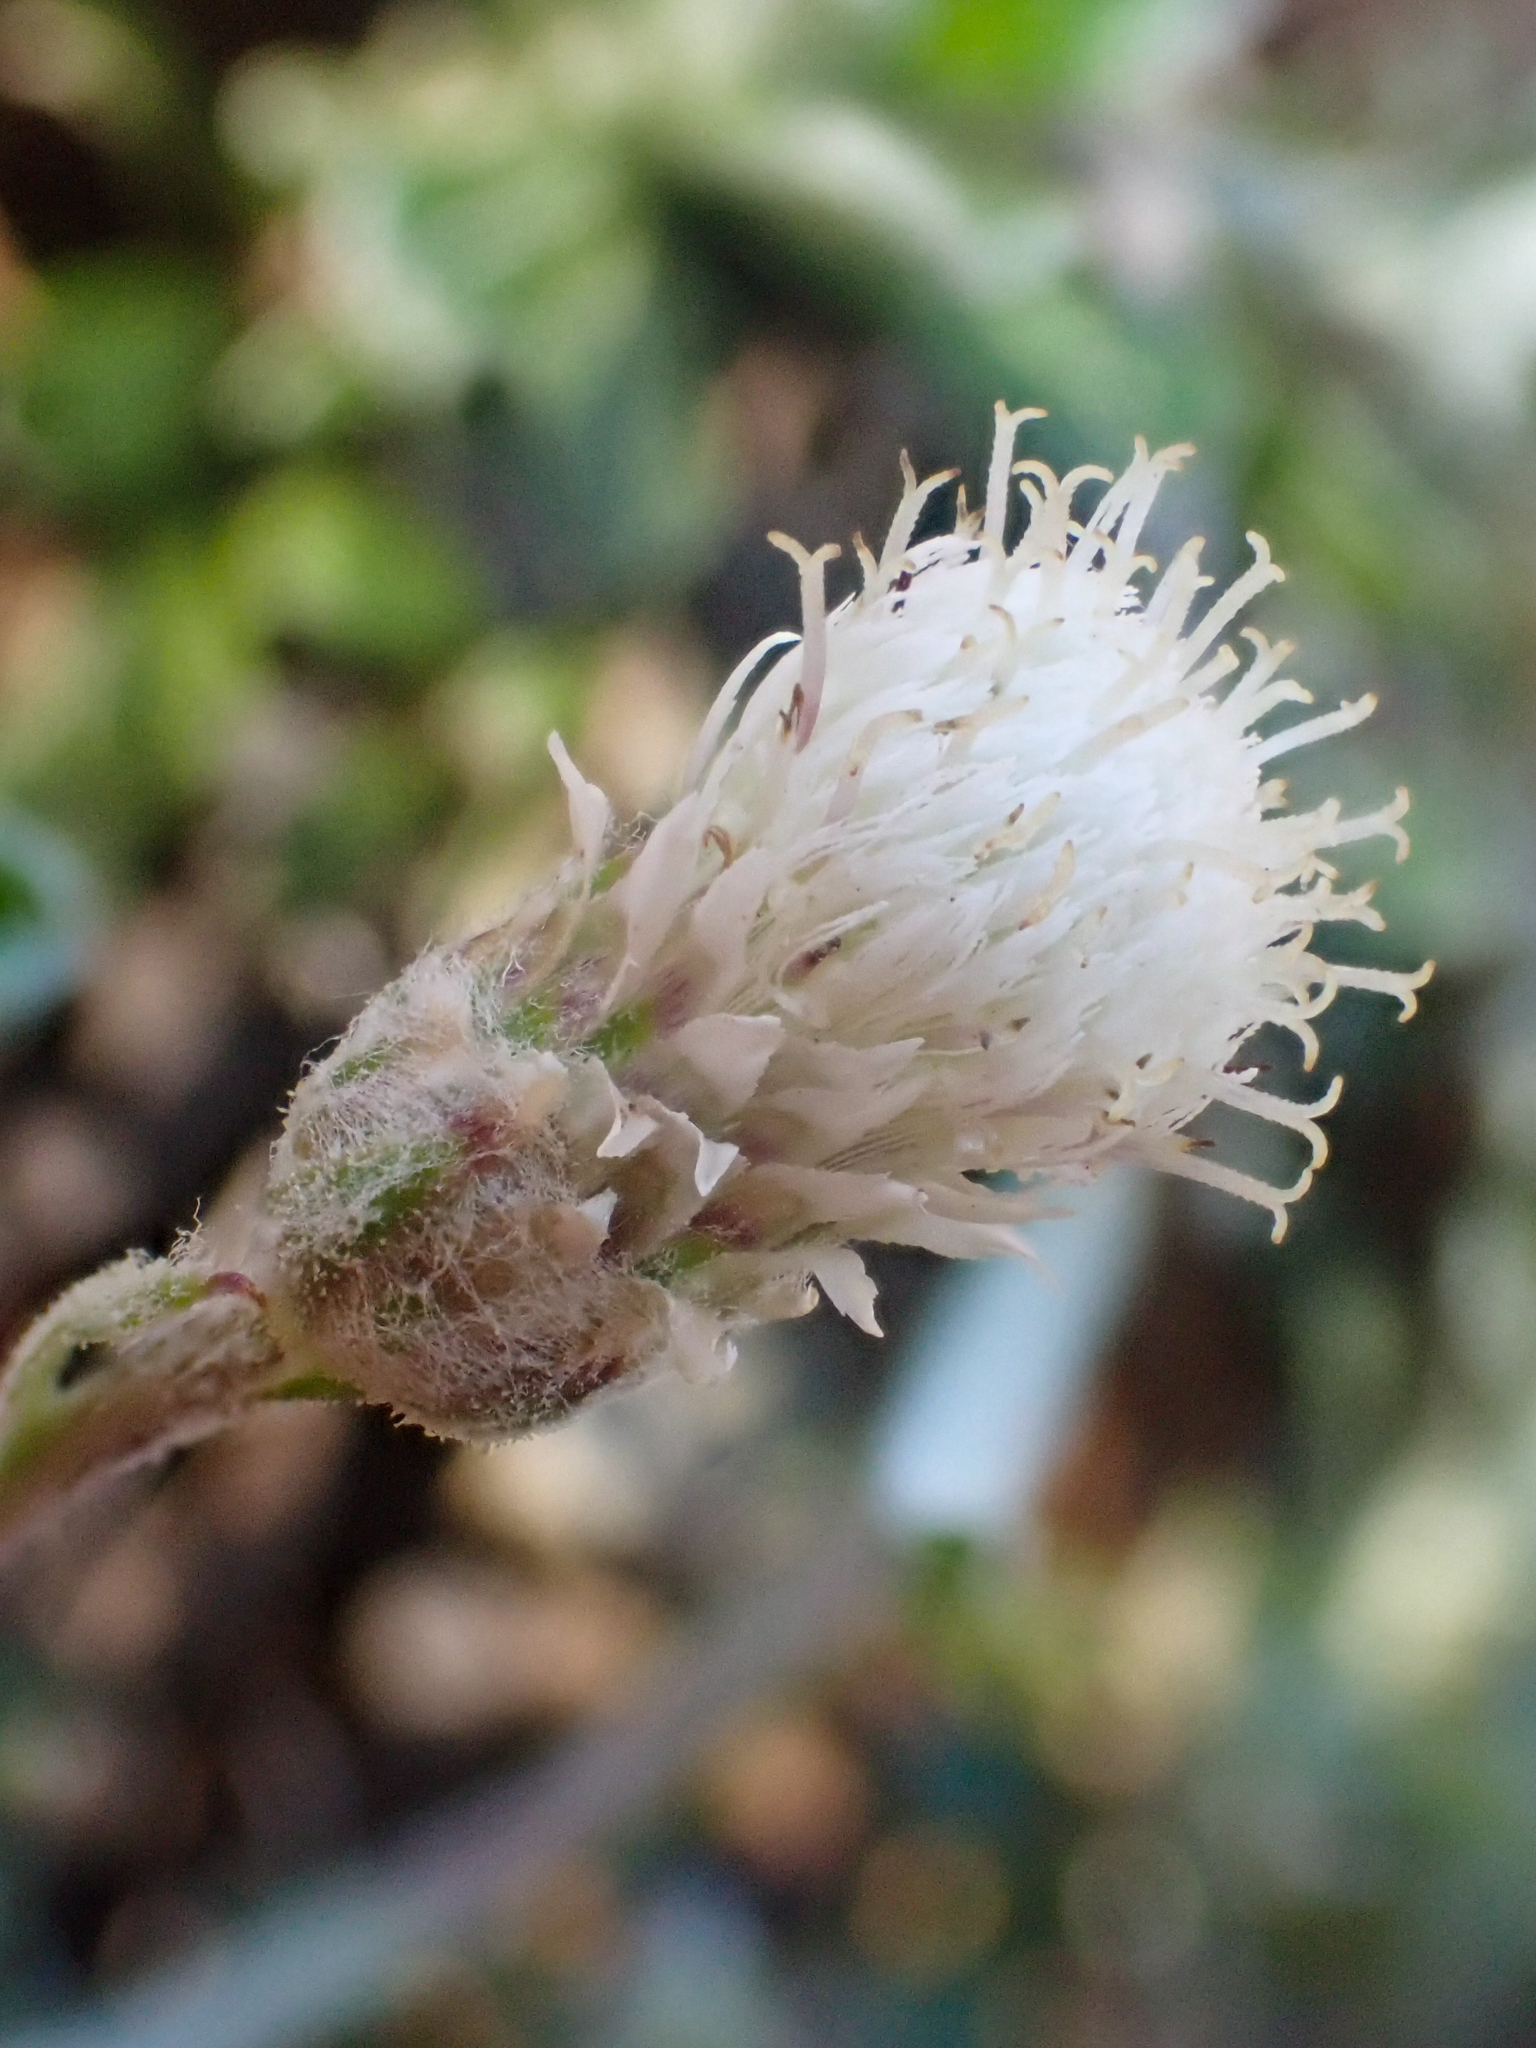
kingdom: Plantae
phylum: Tracheophyta
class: Magnoliopsida
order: Asterales
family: Asteraceae
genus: Antennaria
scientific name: Antennaria suffrutescens
